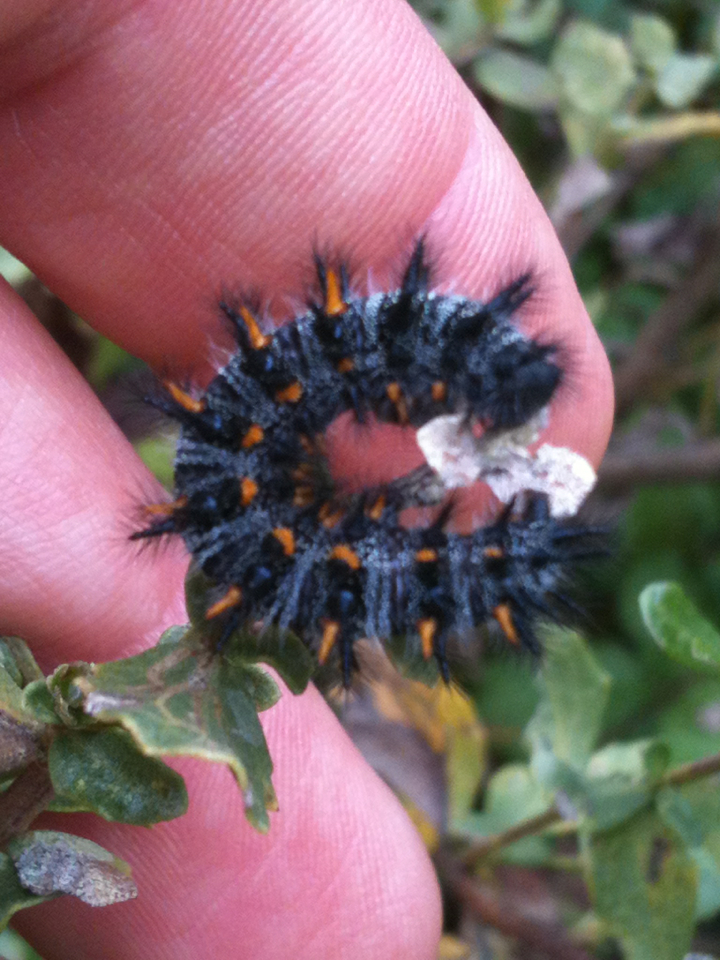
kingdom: Animalia
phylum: Arthropoda
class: Insecta
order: Lepidoptera
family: Nymphalidae
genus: Occidryas
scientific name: Occidryas chalcedona
